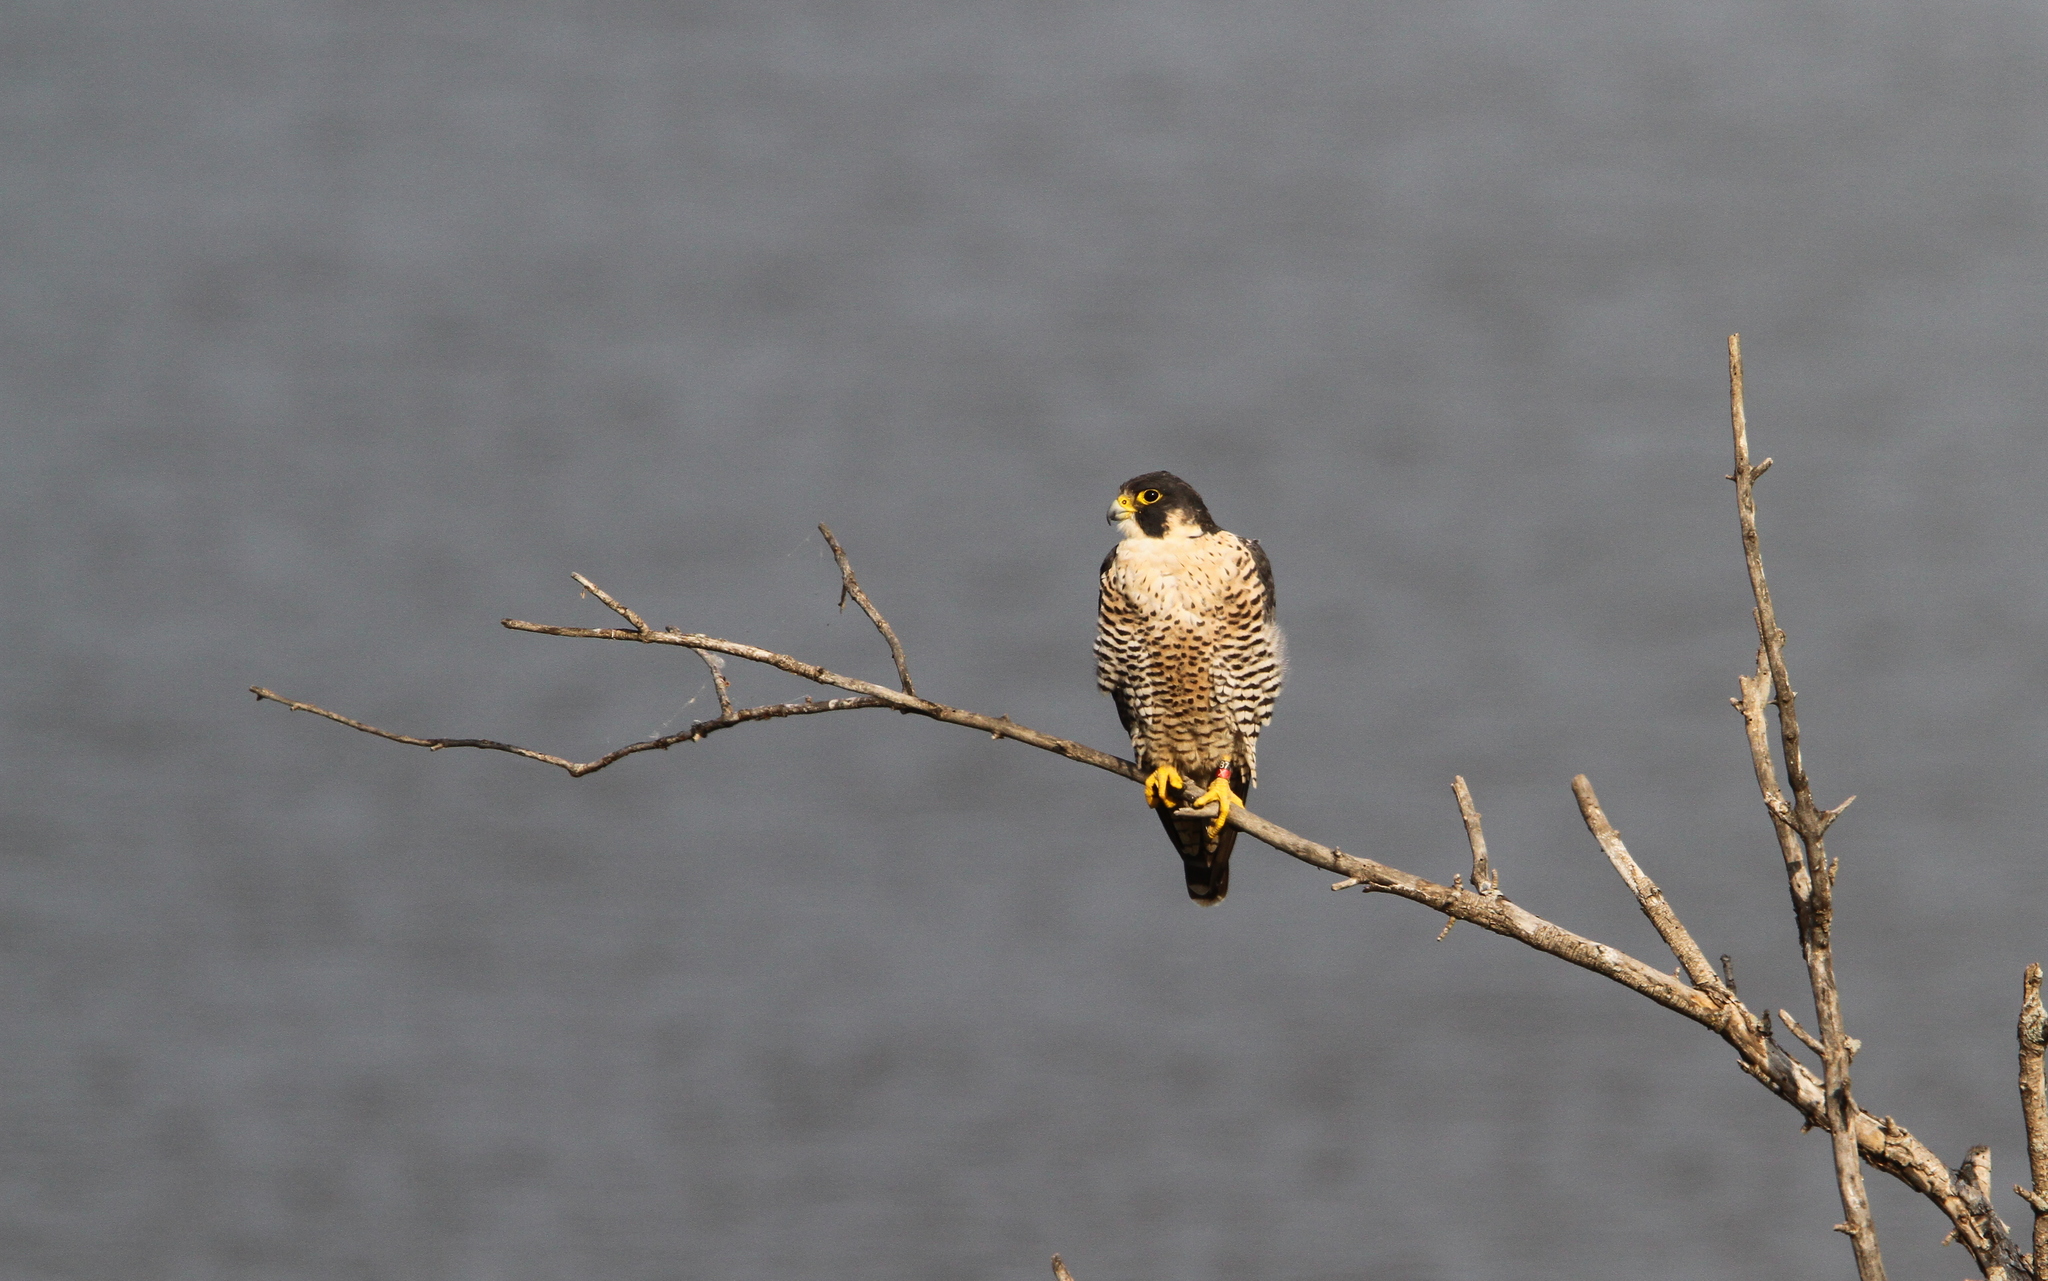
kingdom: Animalia
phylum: Chordata
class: Aves
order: Falconiformes
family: Falconidae
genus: Falco
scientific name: Falco peregrinus
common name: Peregrine falcon
